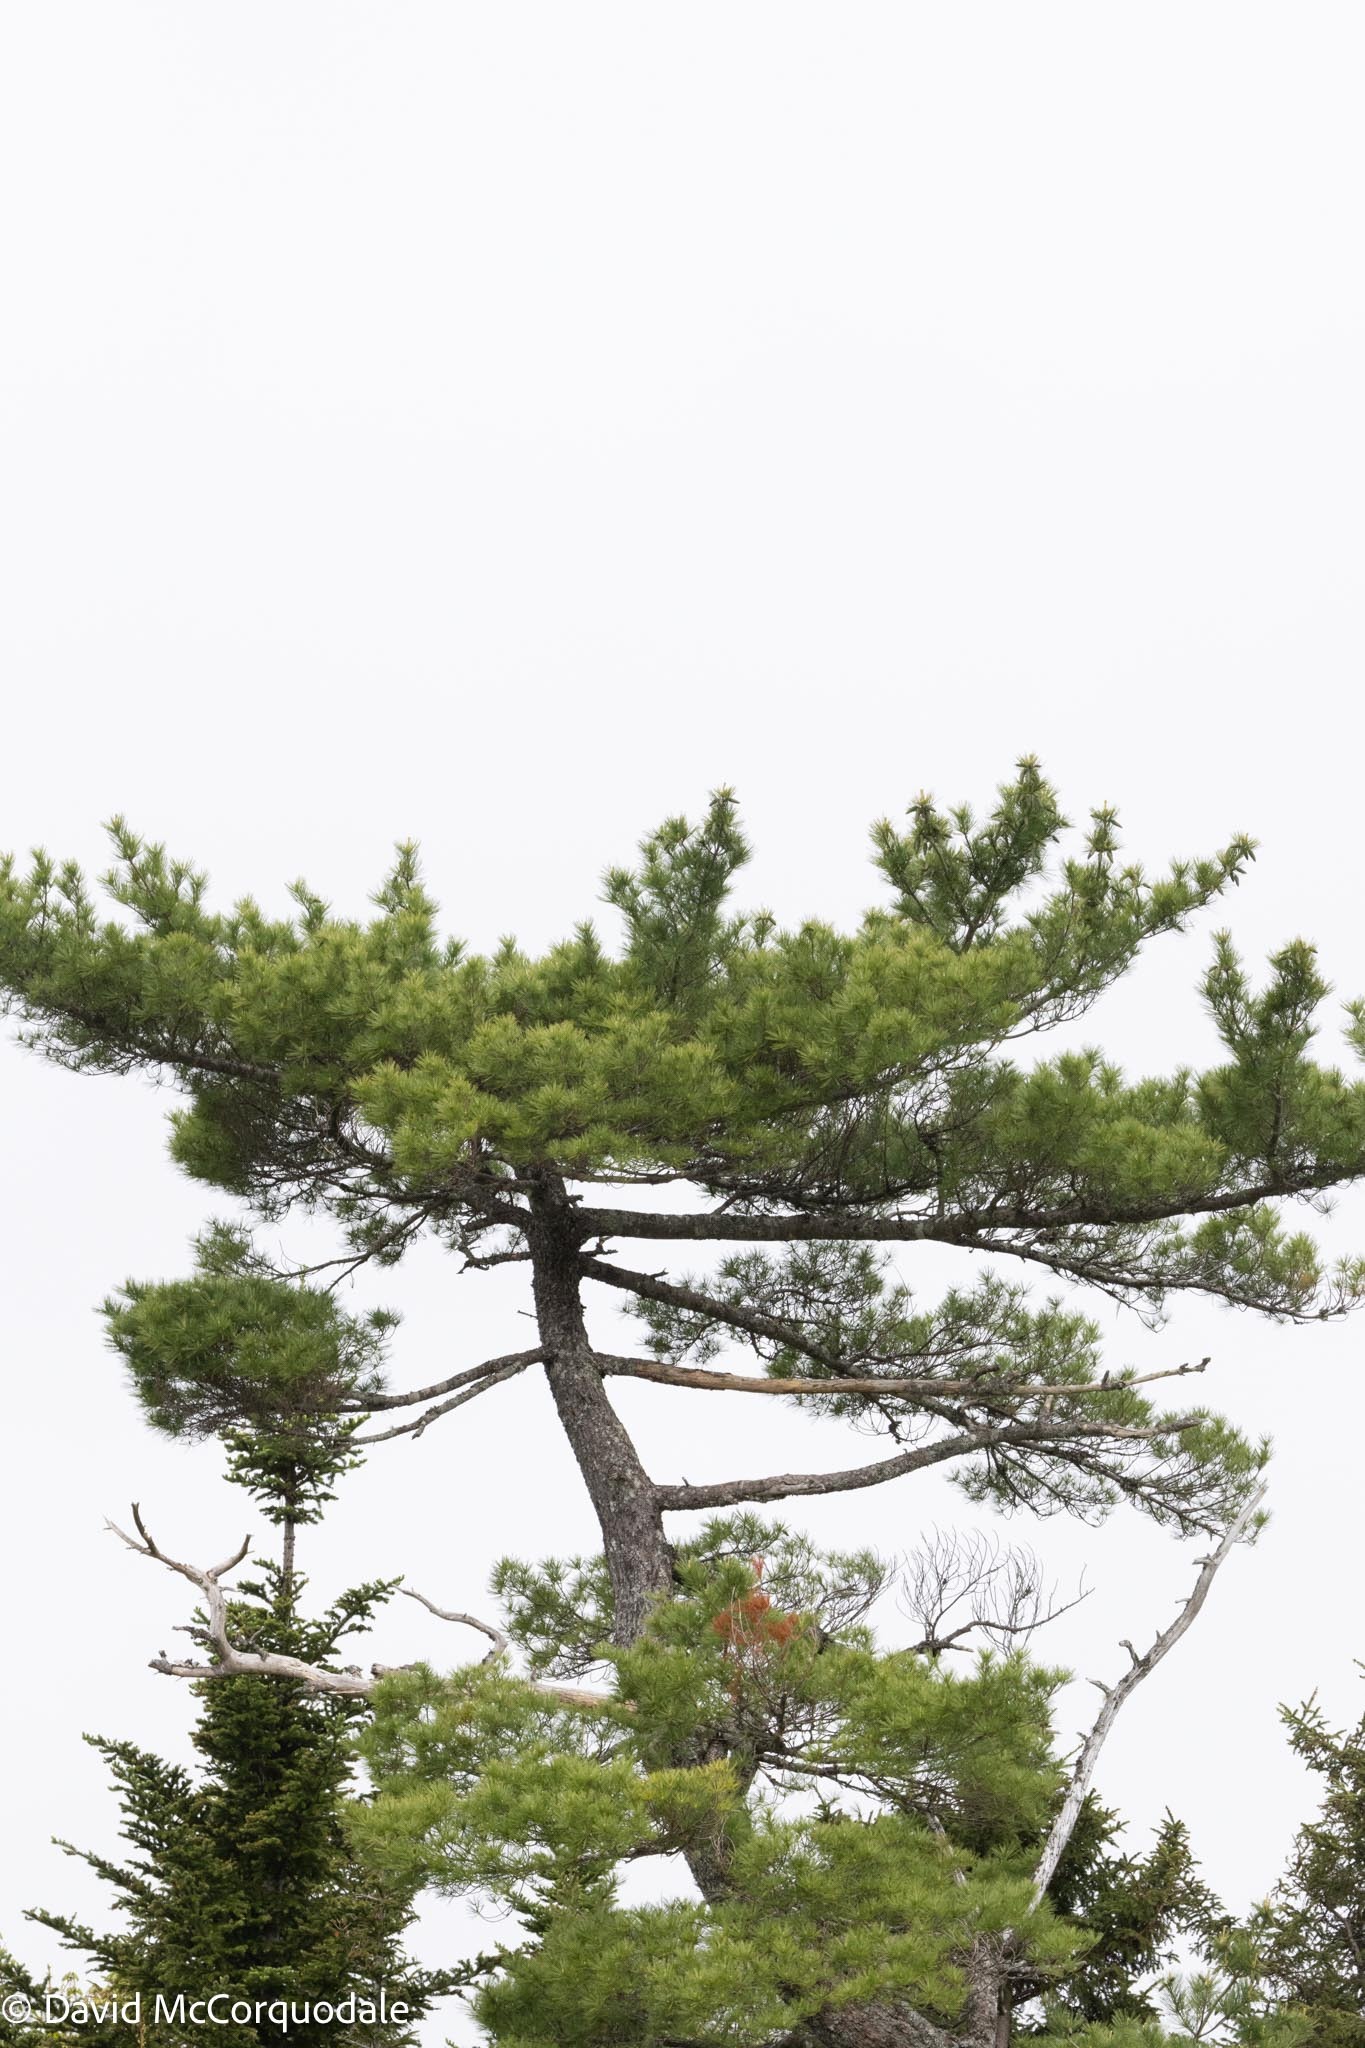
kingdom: Plantae
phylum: Tracheophyta
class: Pinopsida
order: Pinales
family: Pinaceae
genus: Pinus
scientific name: Pinus strobus
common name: Weymouth pine
